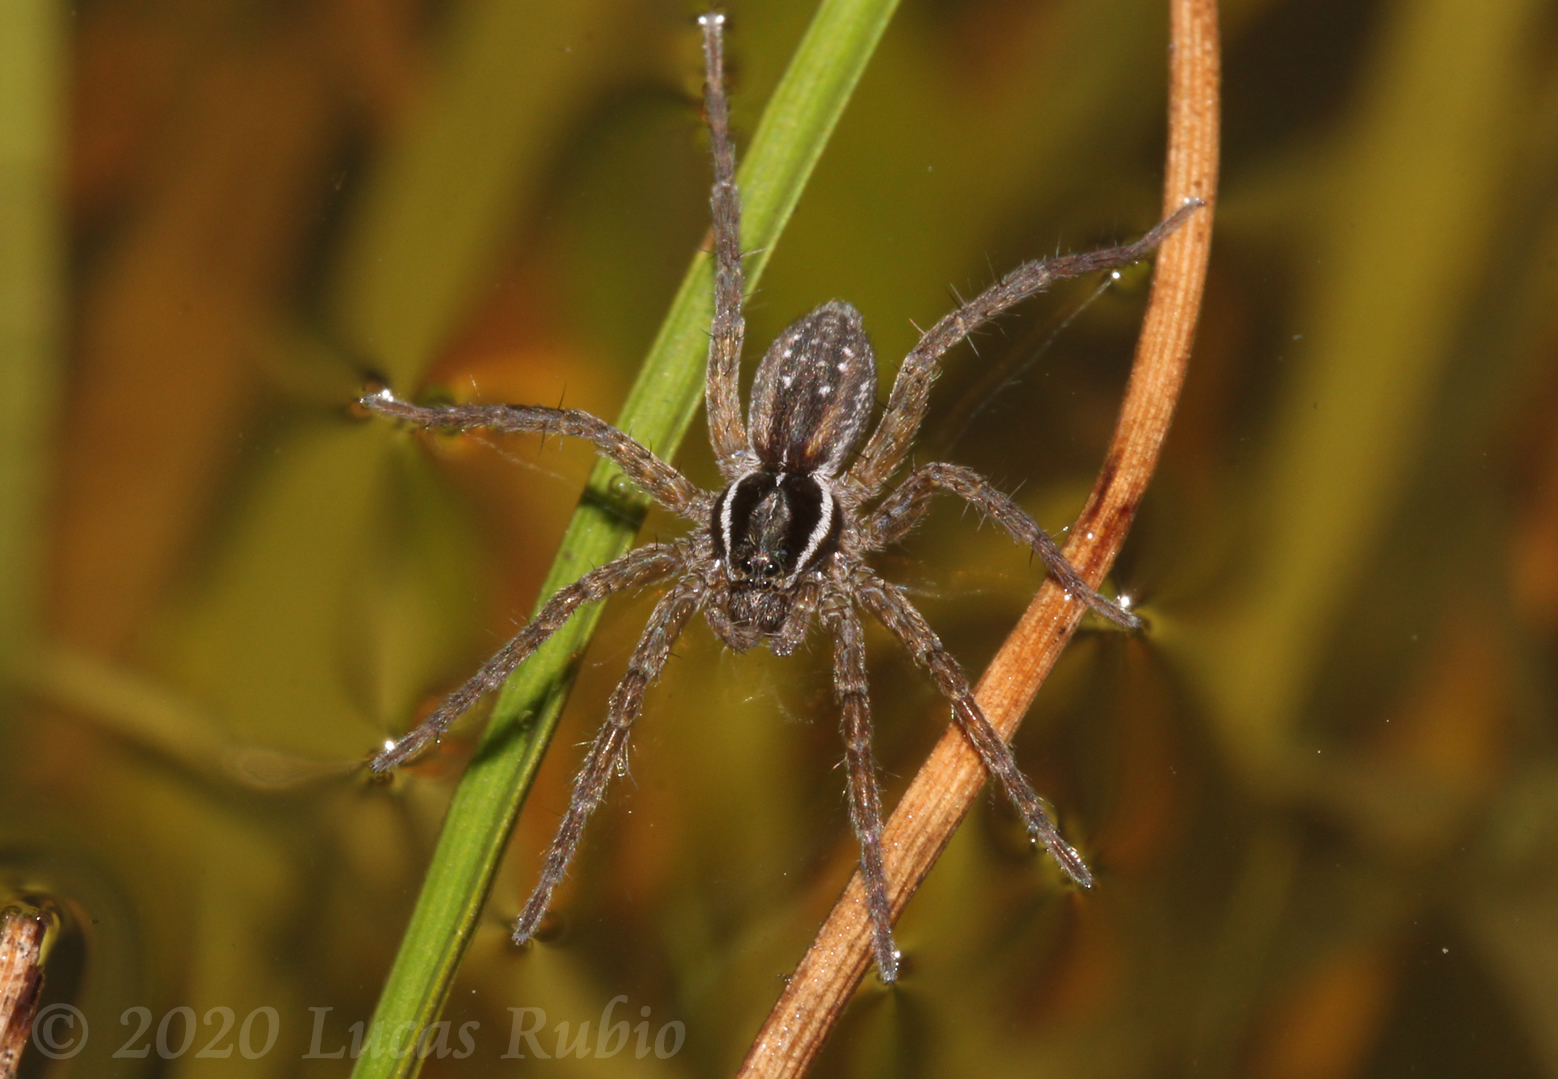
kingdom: Animalia
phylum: Arthropoda
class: Arachnida
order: Araneae
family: Lycosidae
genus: Diapontia
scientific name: Diapontia uruguayensis
